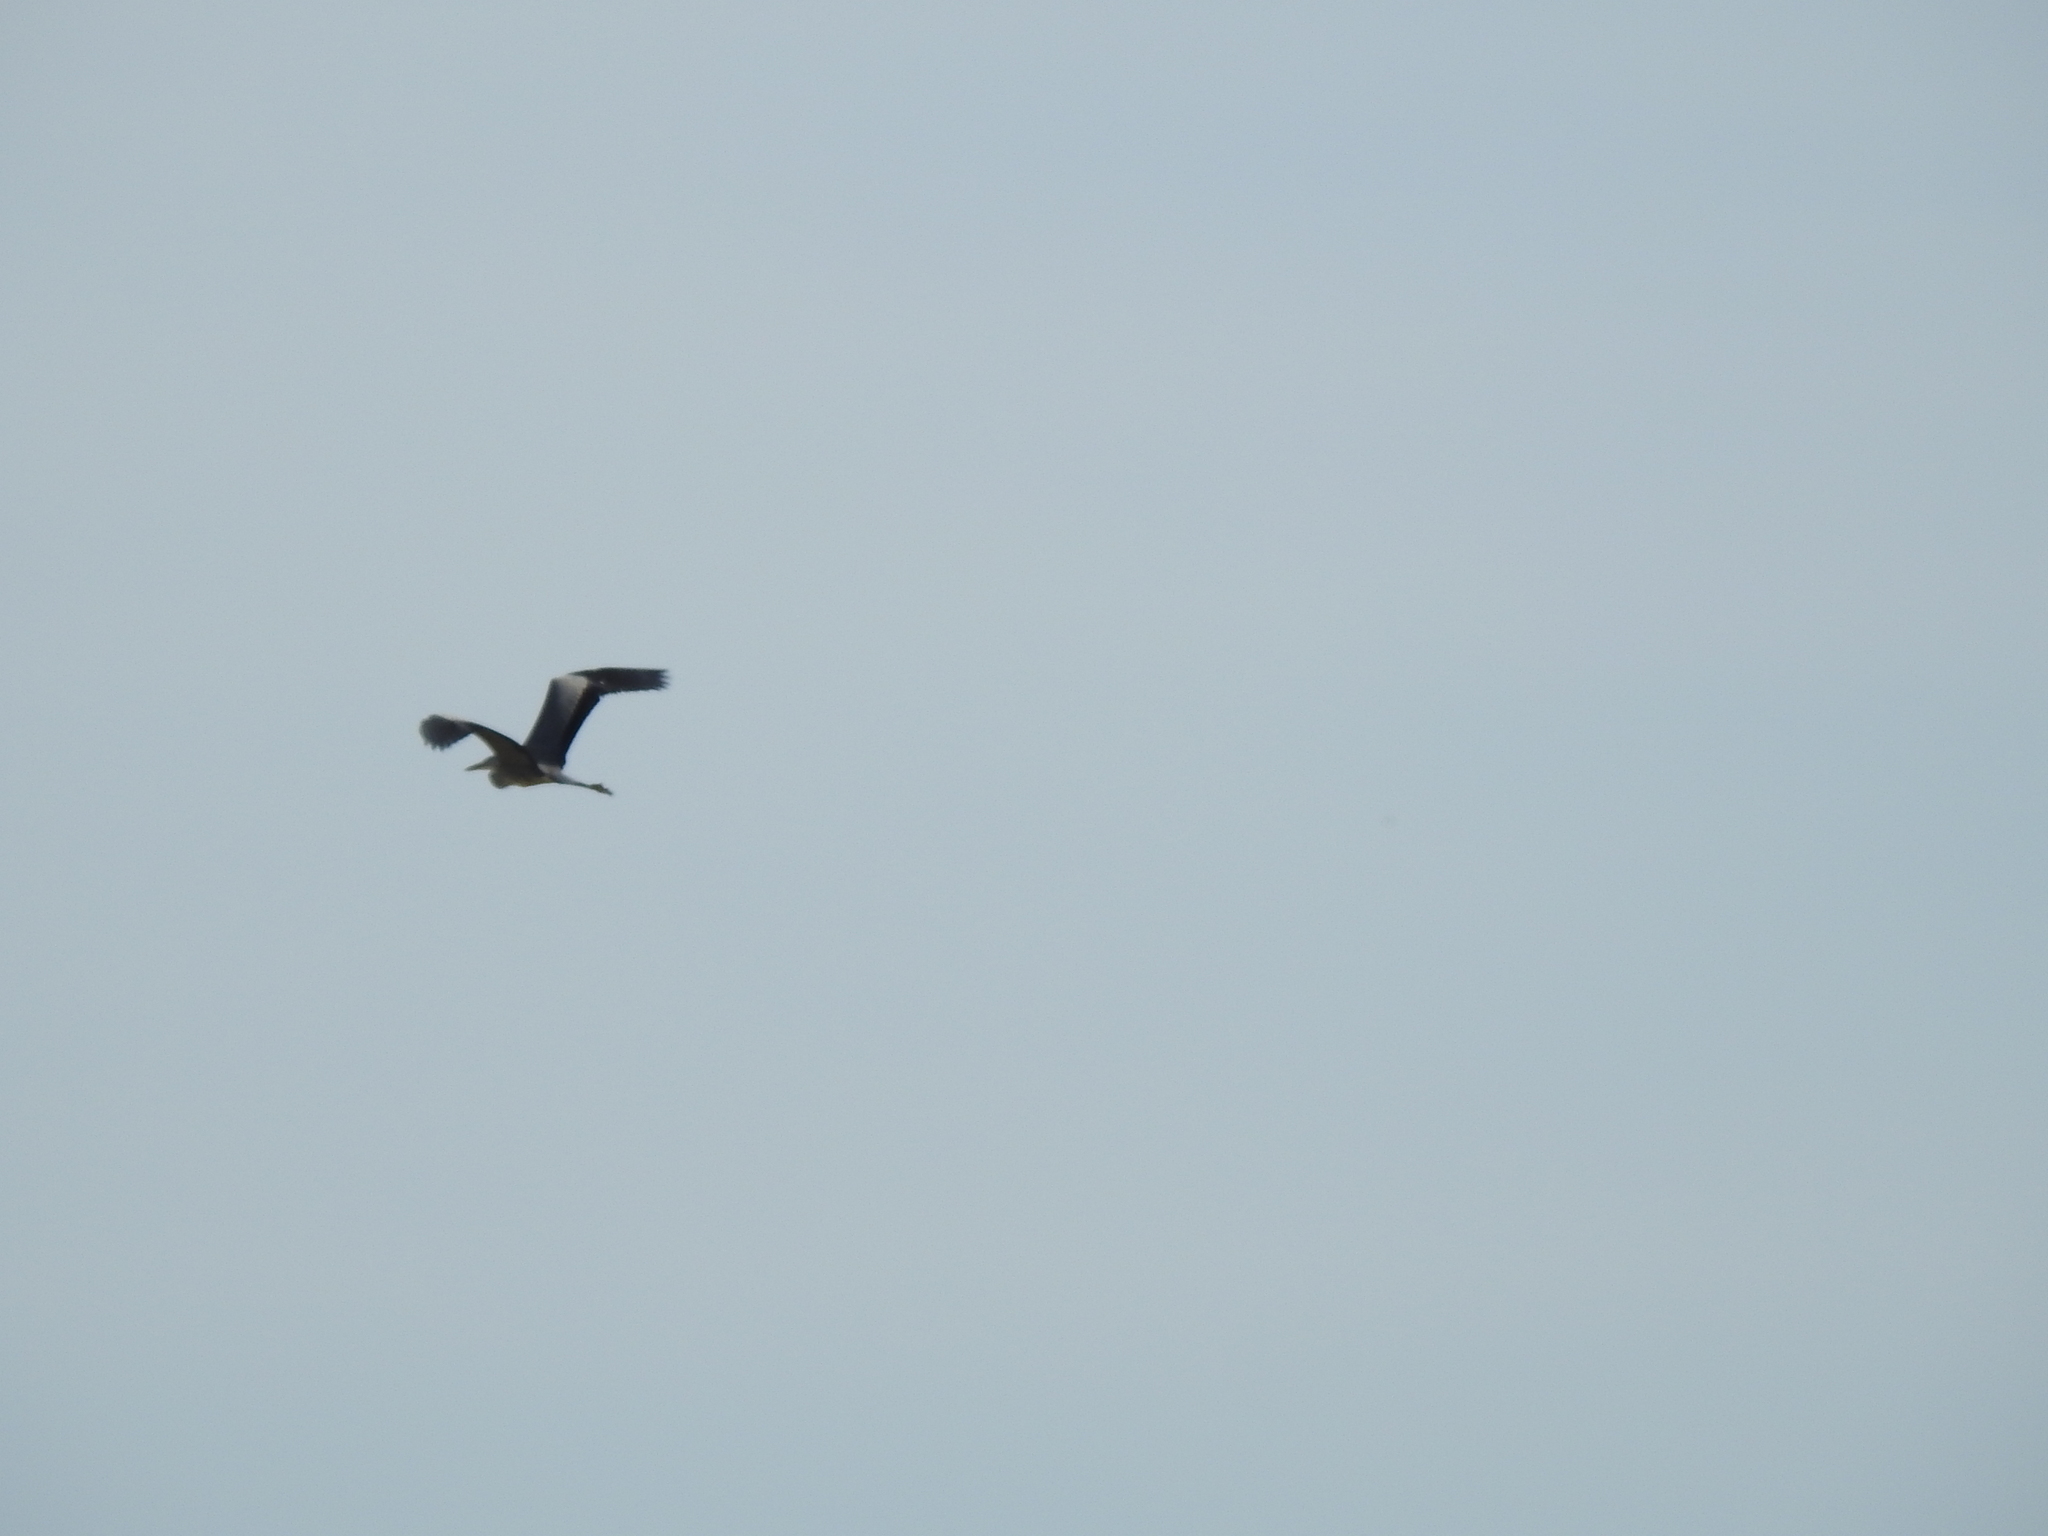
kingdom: Animalia
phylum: Chordata
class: Aves
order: Pelecaniformes
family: Ardeidae
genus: Ardea
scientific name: Ardea cinerea
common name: Grey heron
